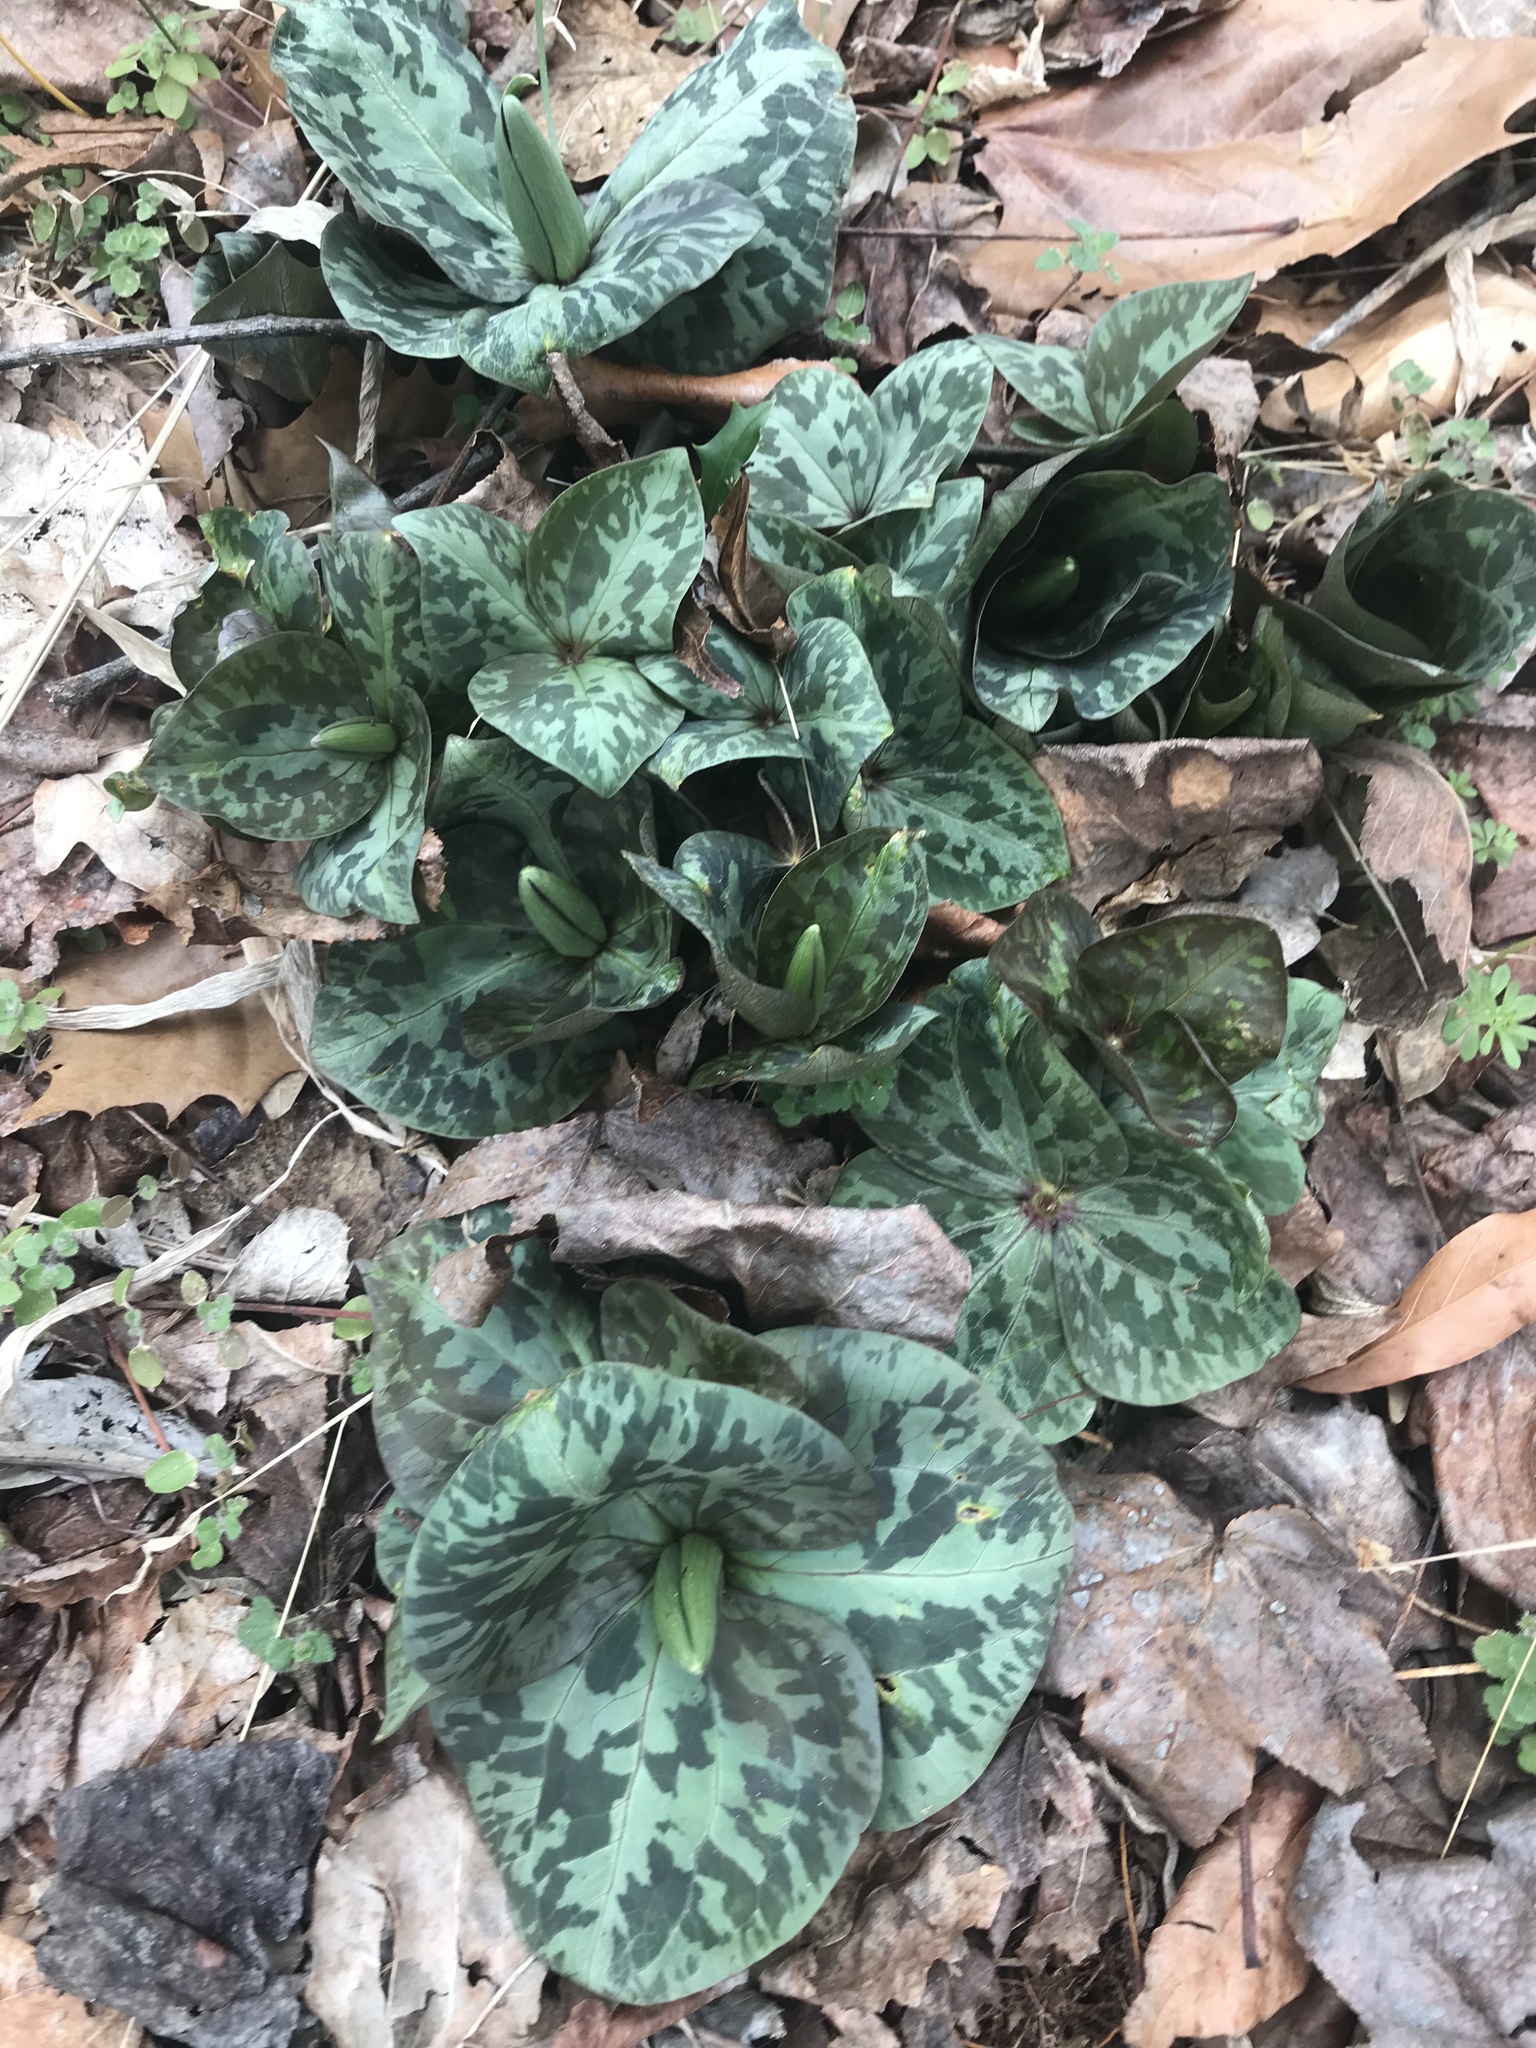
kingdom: Plantae
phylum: Tracheophyta
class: Liliopsida
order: Liliales
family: Melanthiaceae
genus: Trillium
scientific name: Trillium cuneatum
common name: Cuneate trillium
